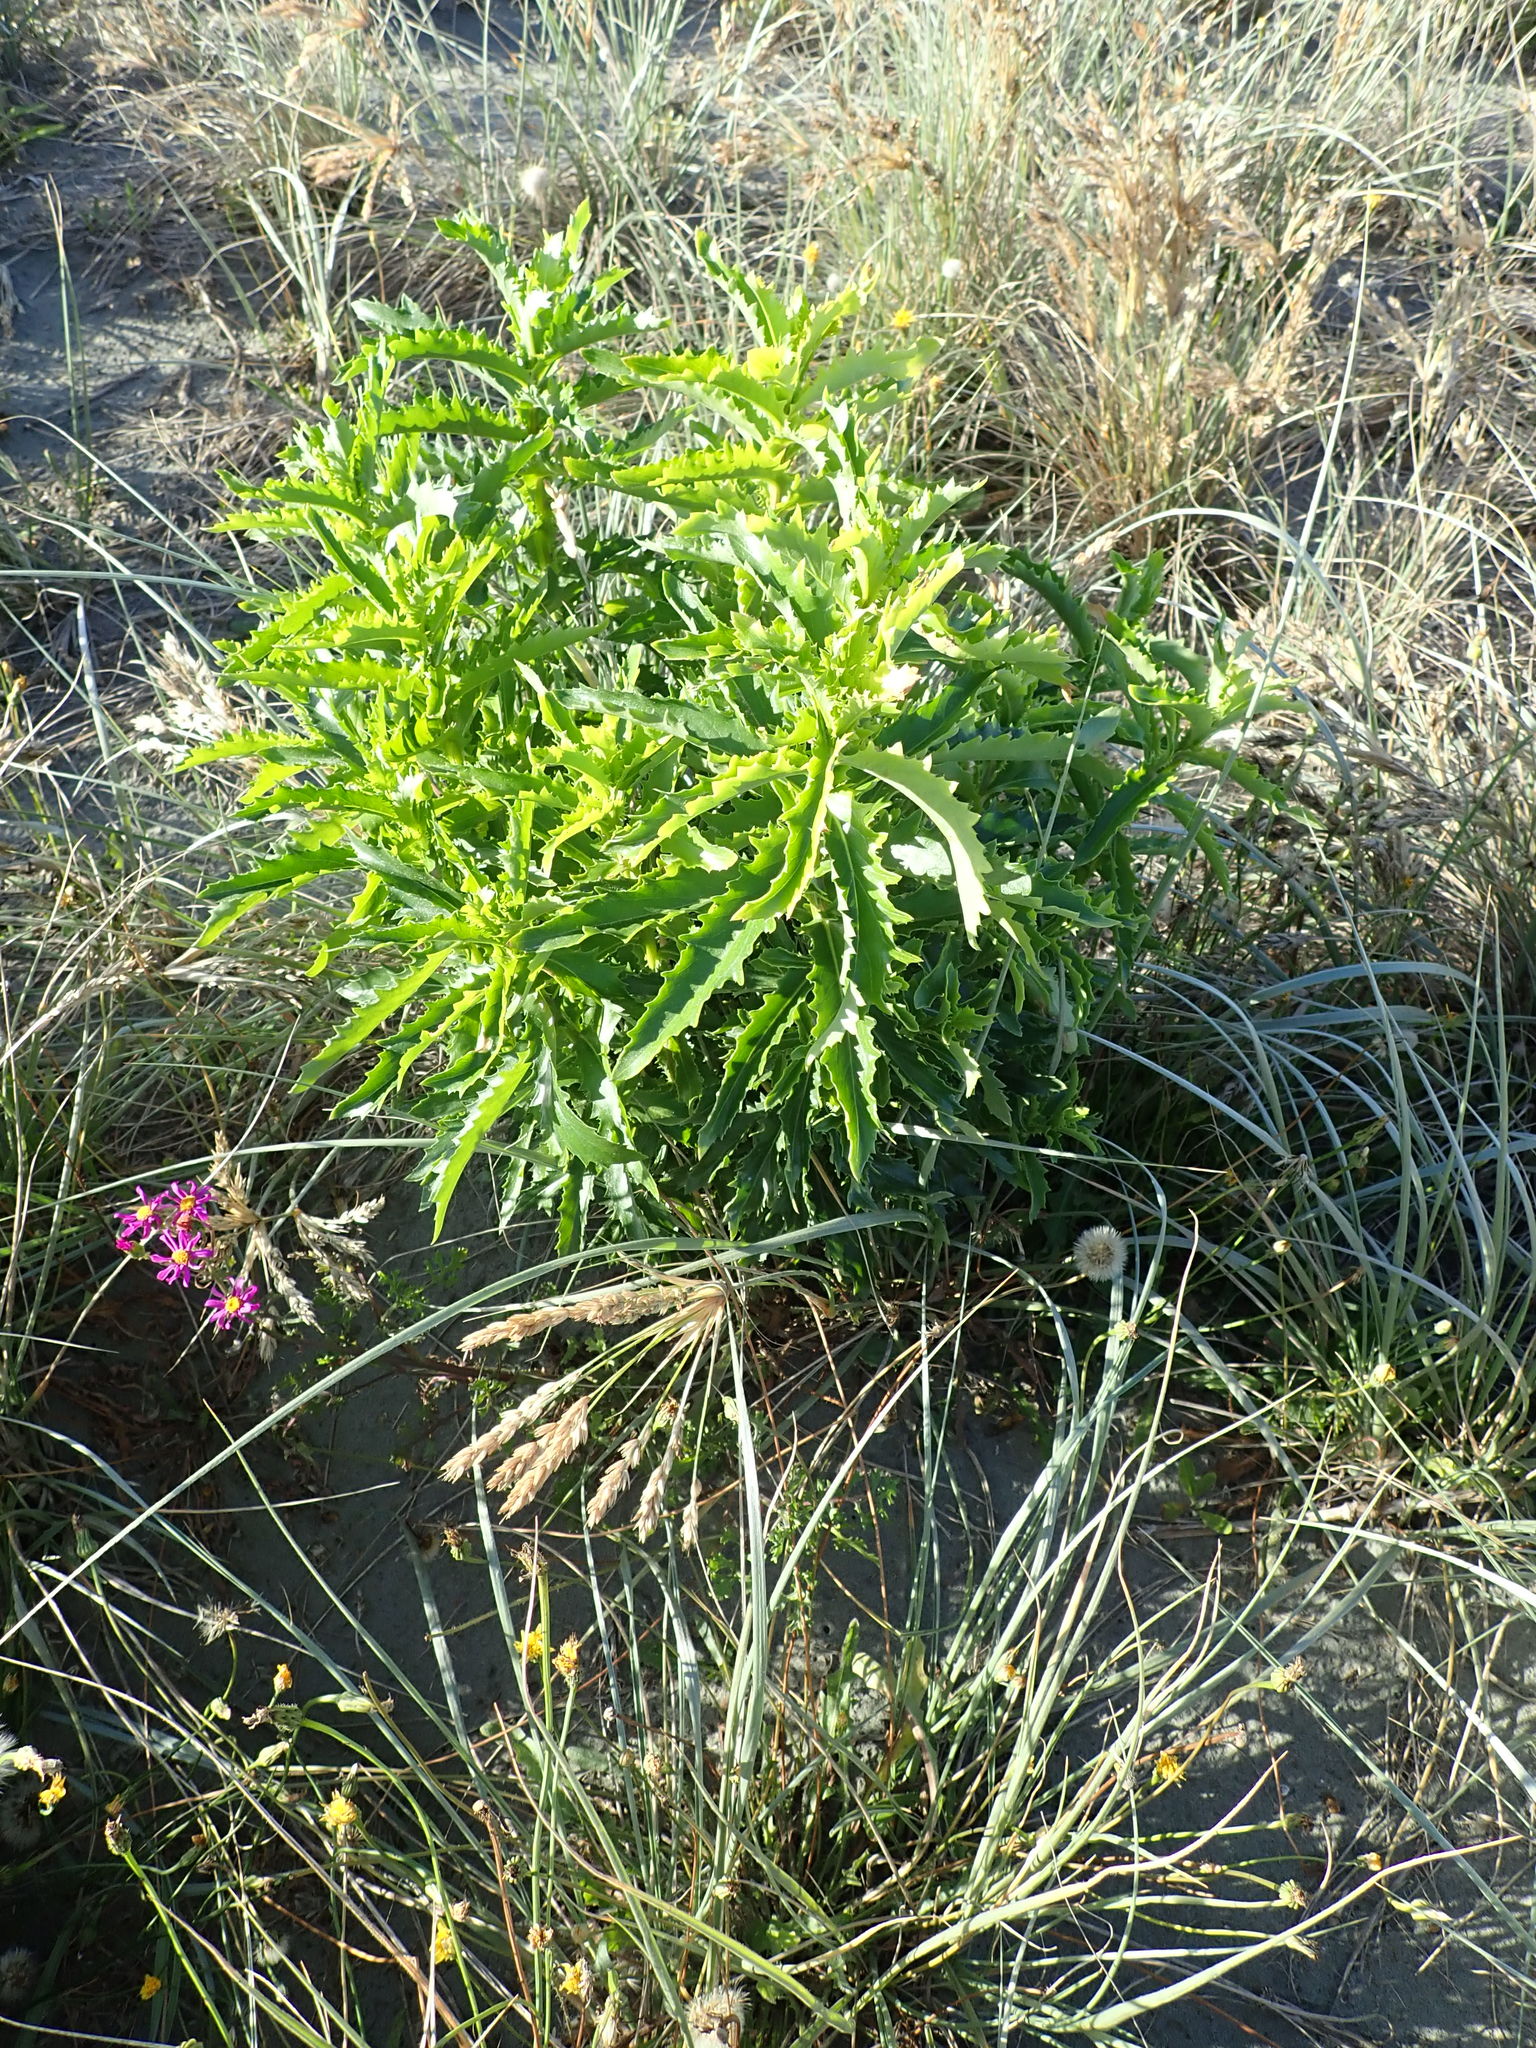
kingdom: Plantae
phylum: Tracheophyta
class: Magnoliopsida
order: Asterales
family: Asteraceae
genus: Senecio
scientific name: Senecio glastifolius
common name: Woad-leaved ragwort
